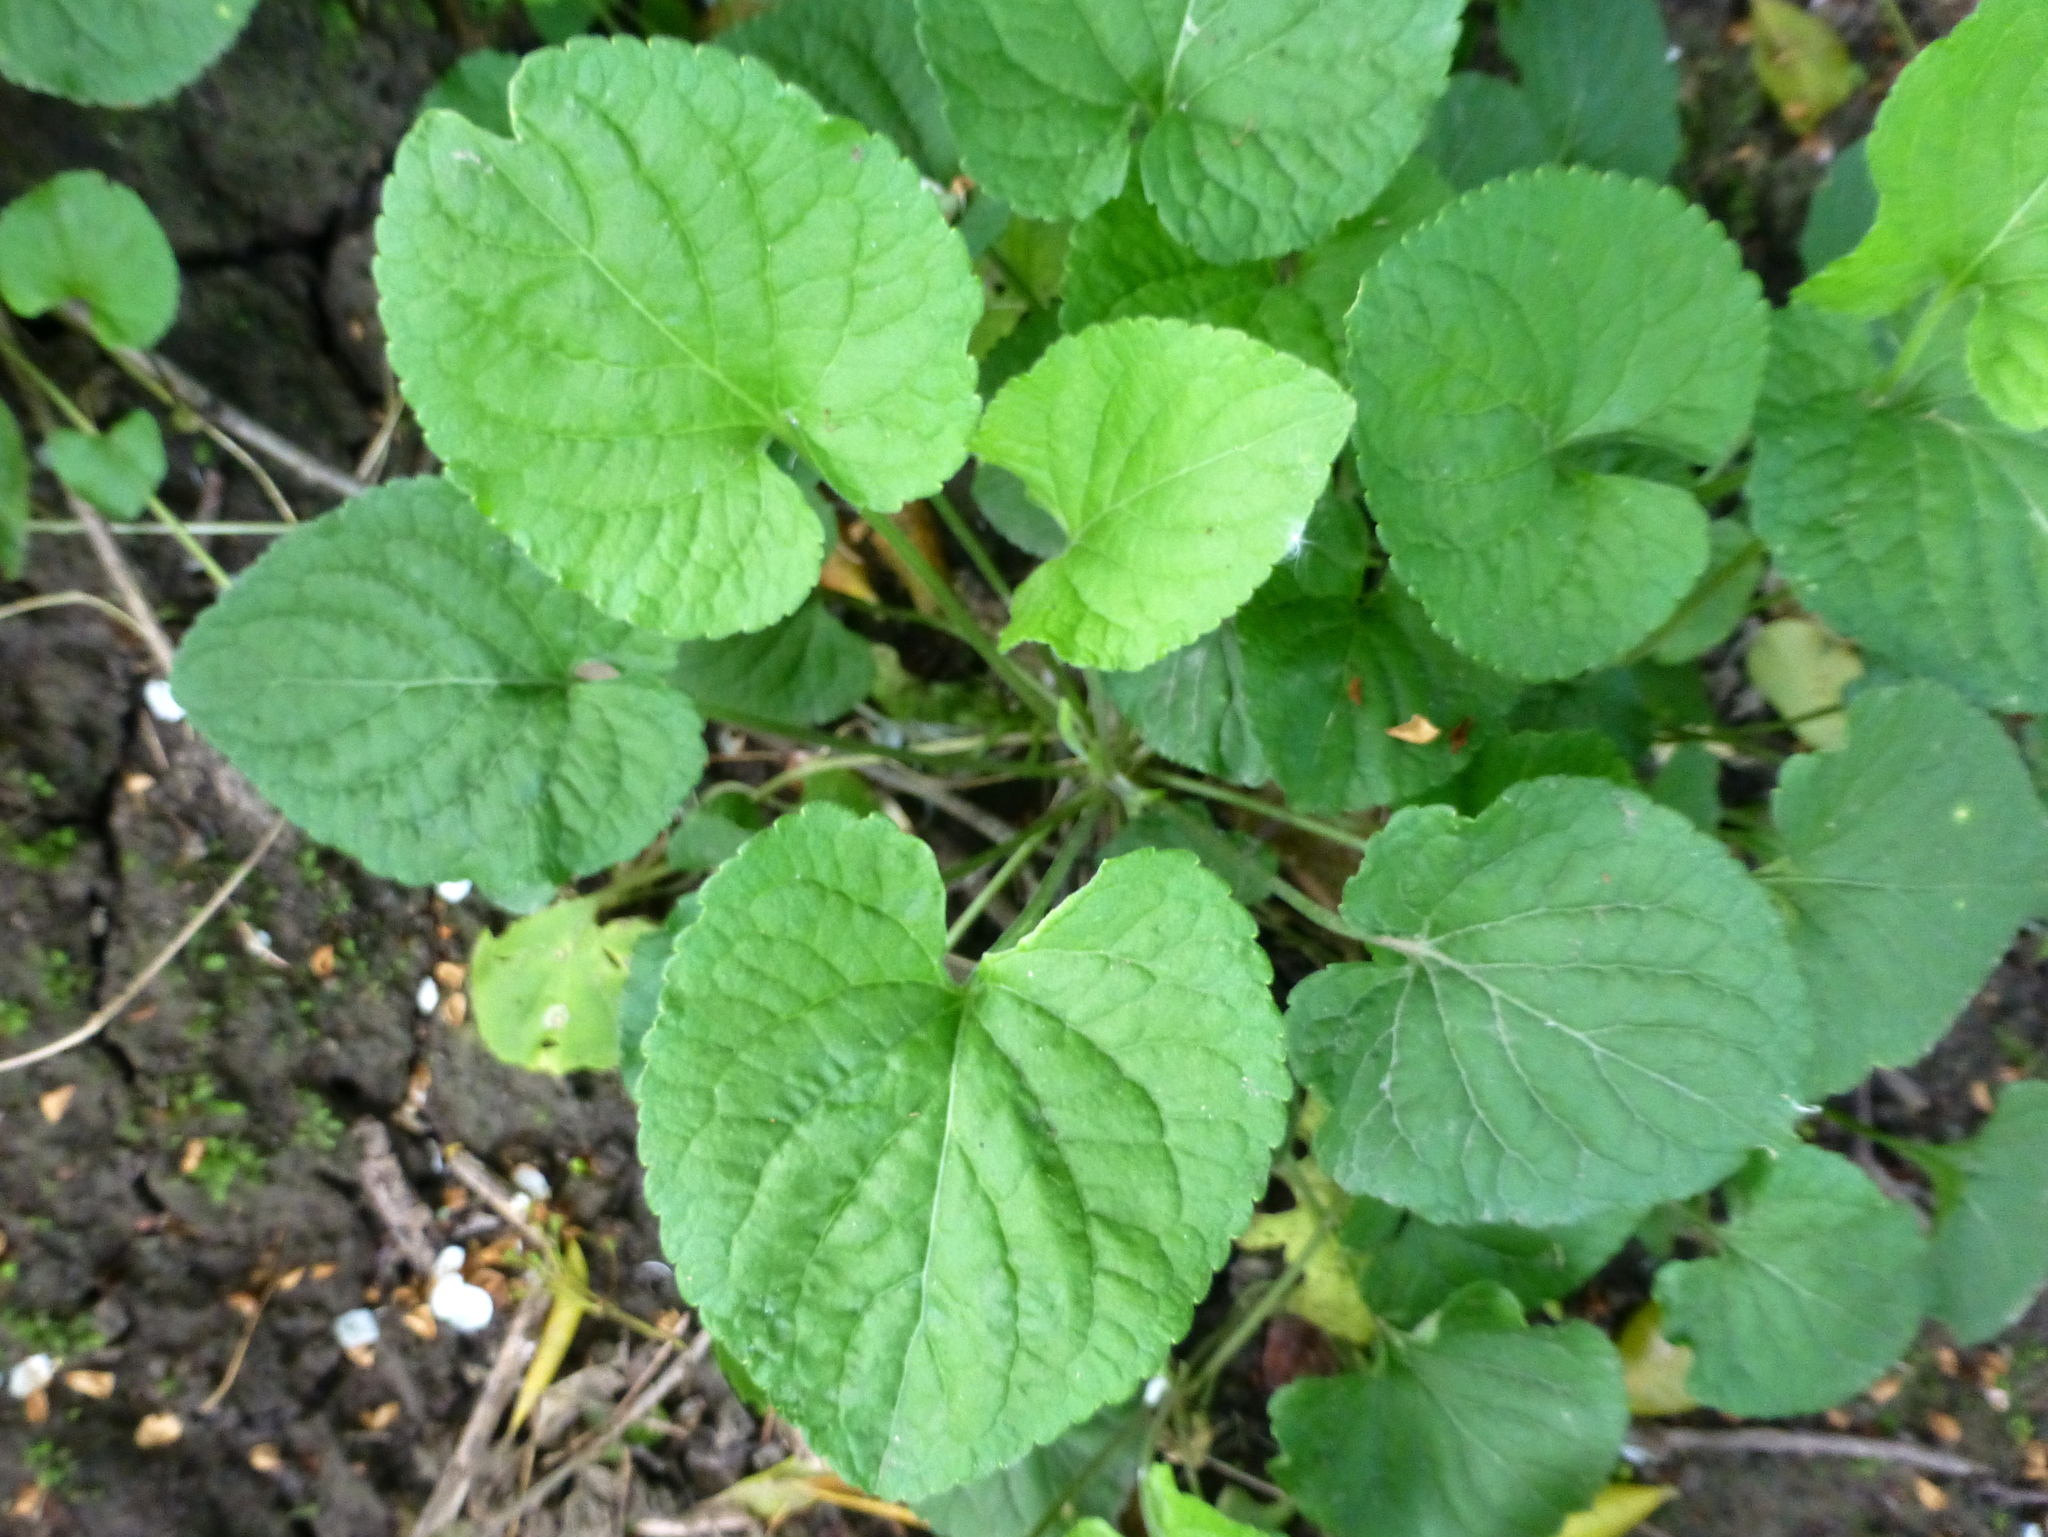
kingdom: Plantae
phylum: Tracheophyta
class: Magnoliopsida
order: Malpighiales
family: Violaceae
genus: Viola
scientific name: Viola odorata
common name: Sweet violet
